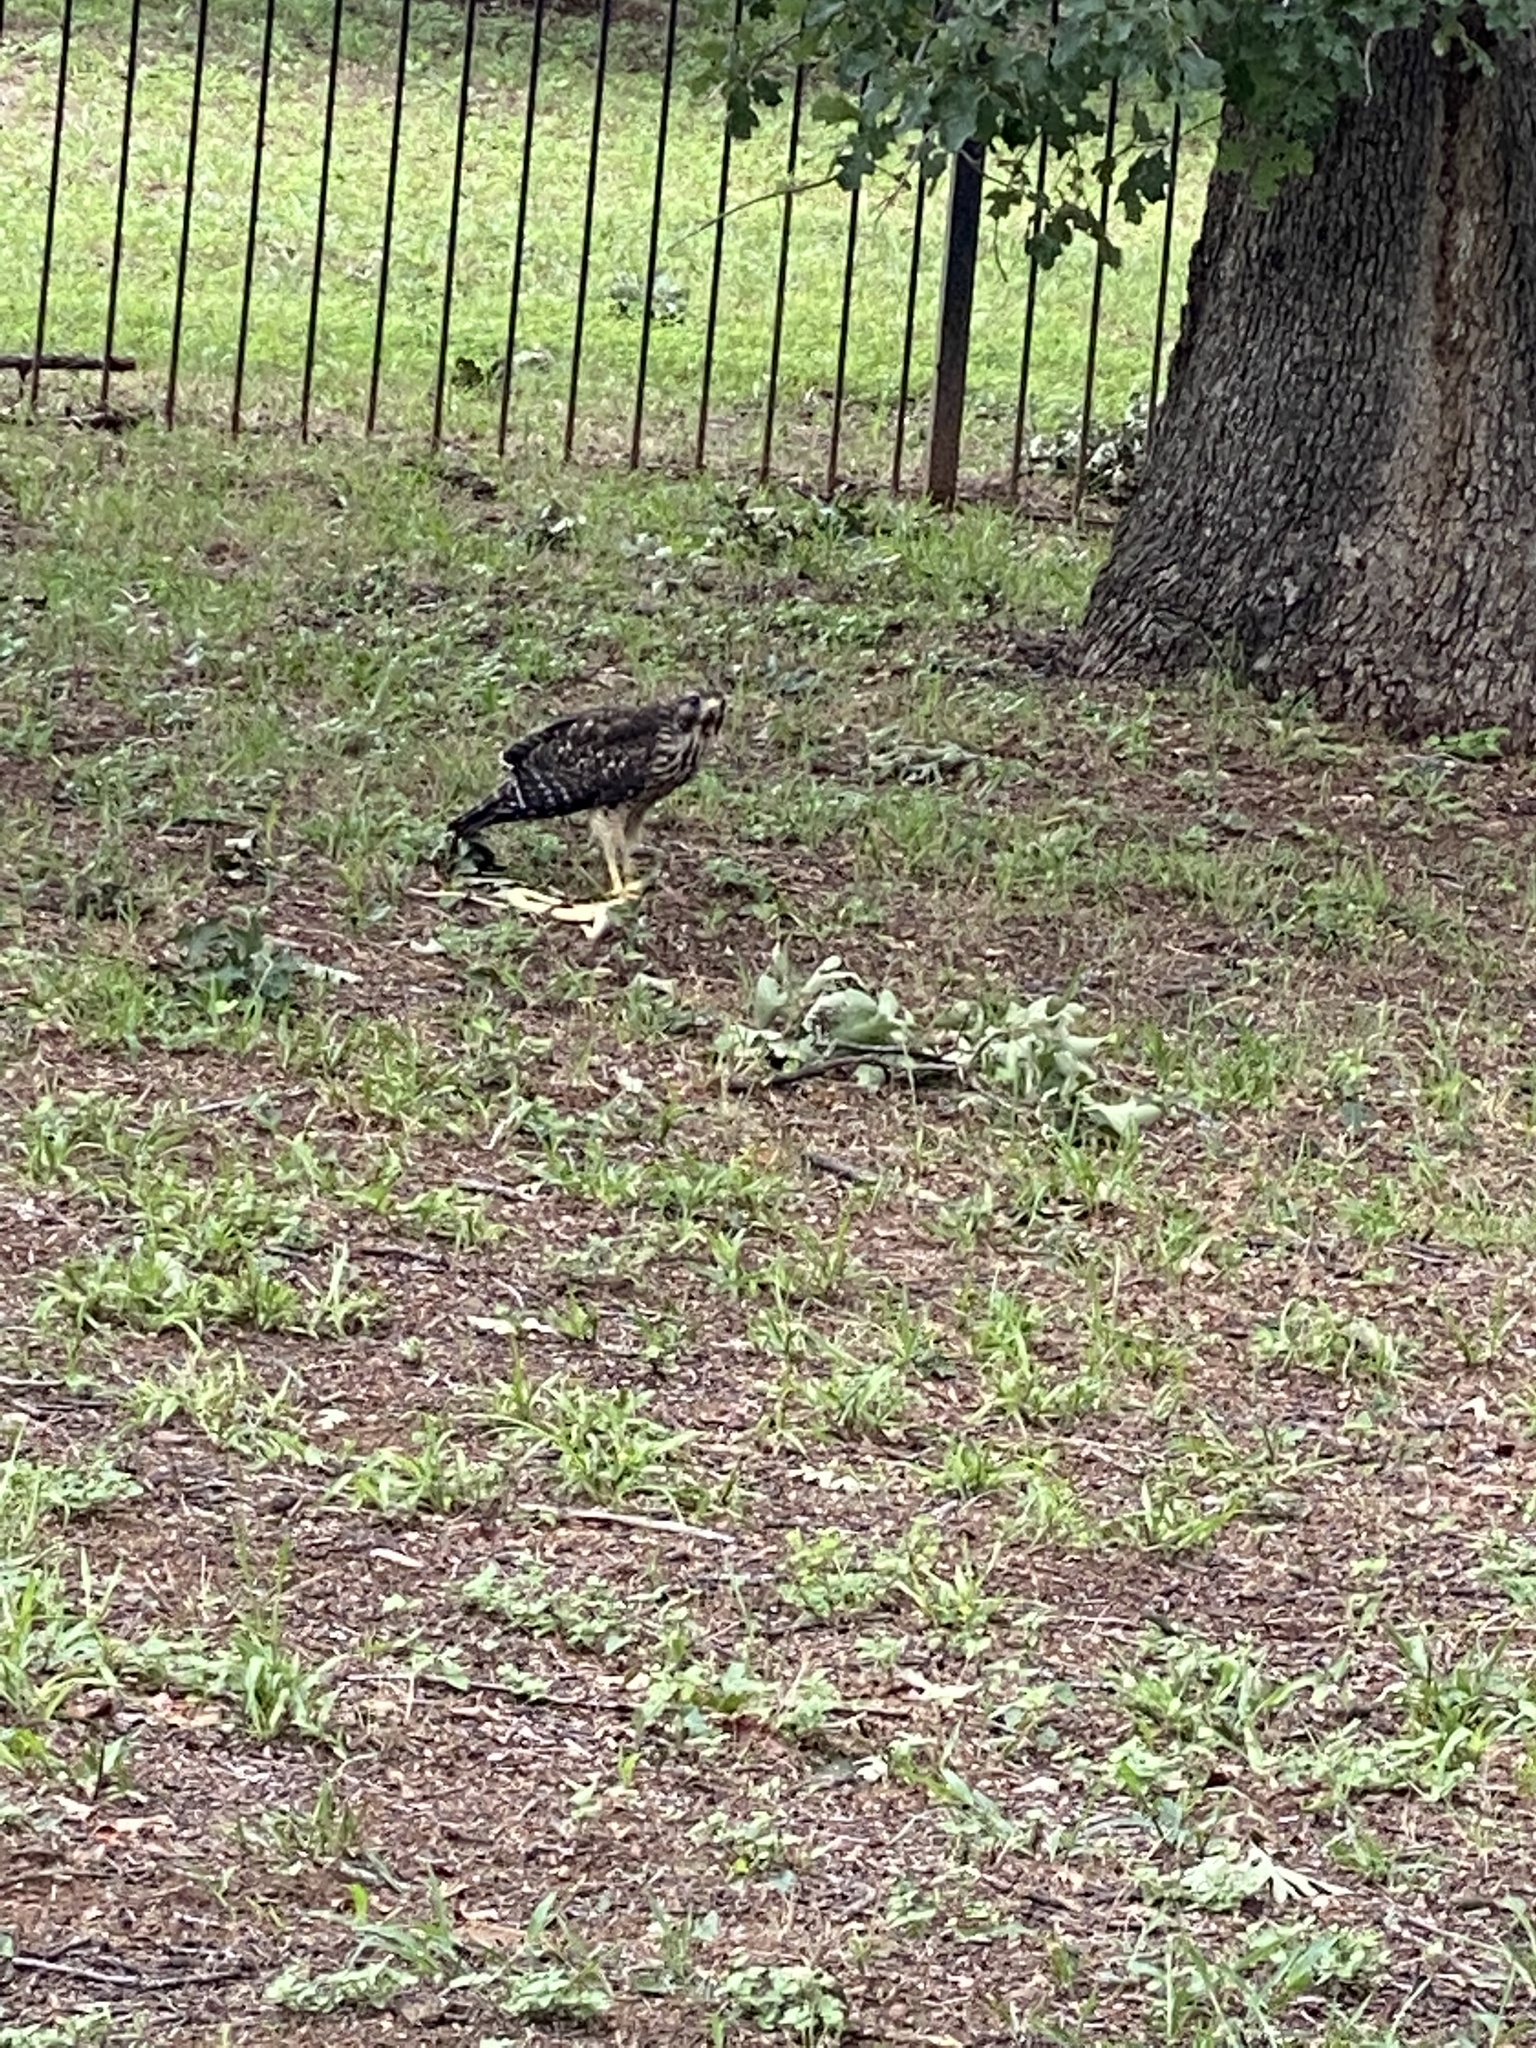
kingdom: Animalia
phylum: Chordata
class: Aves
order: Accipitriformes
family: Accipitridae
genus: Buteo
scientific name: Buteo lineatus
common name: Red-shouldered hawk
